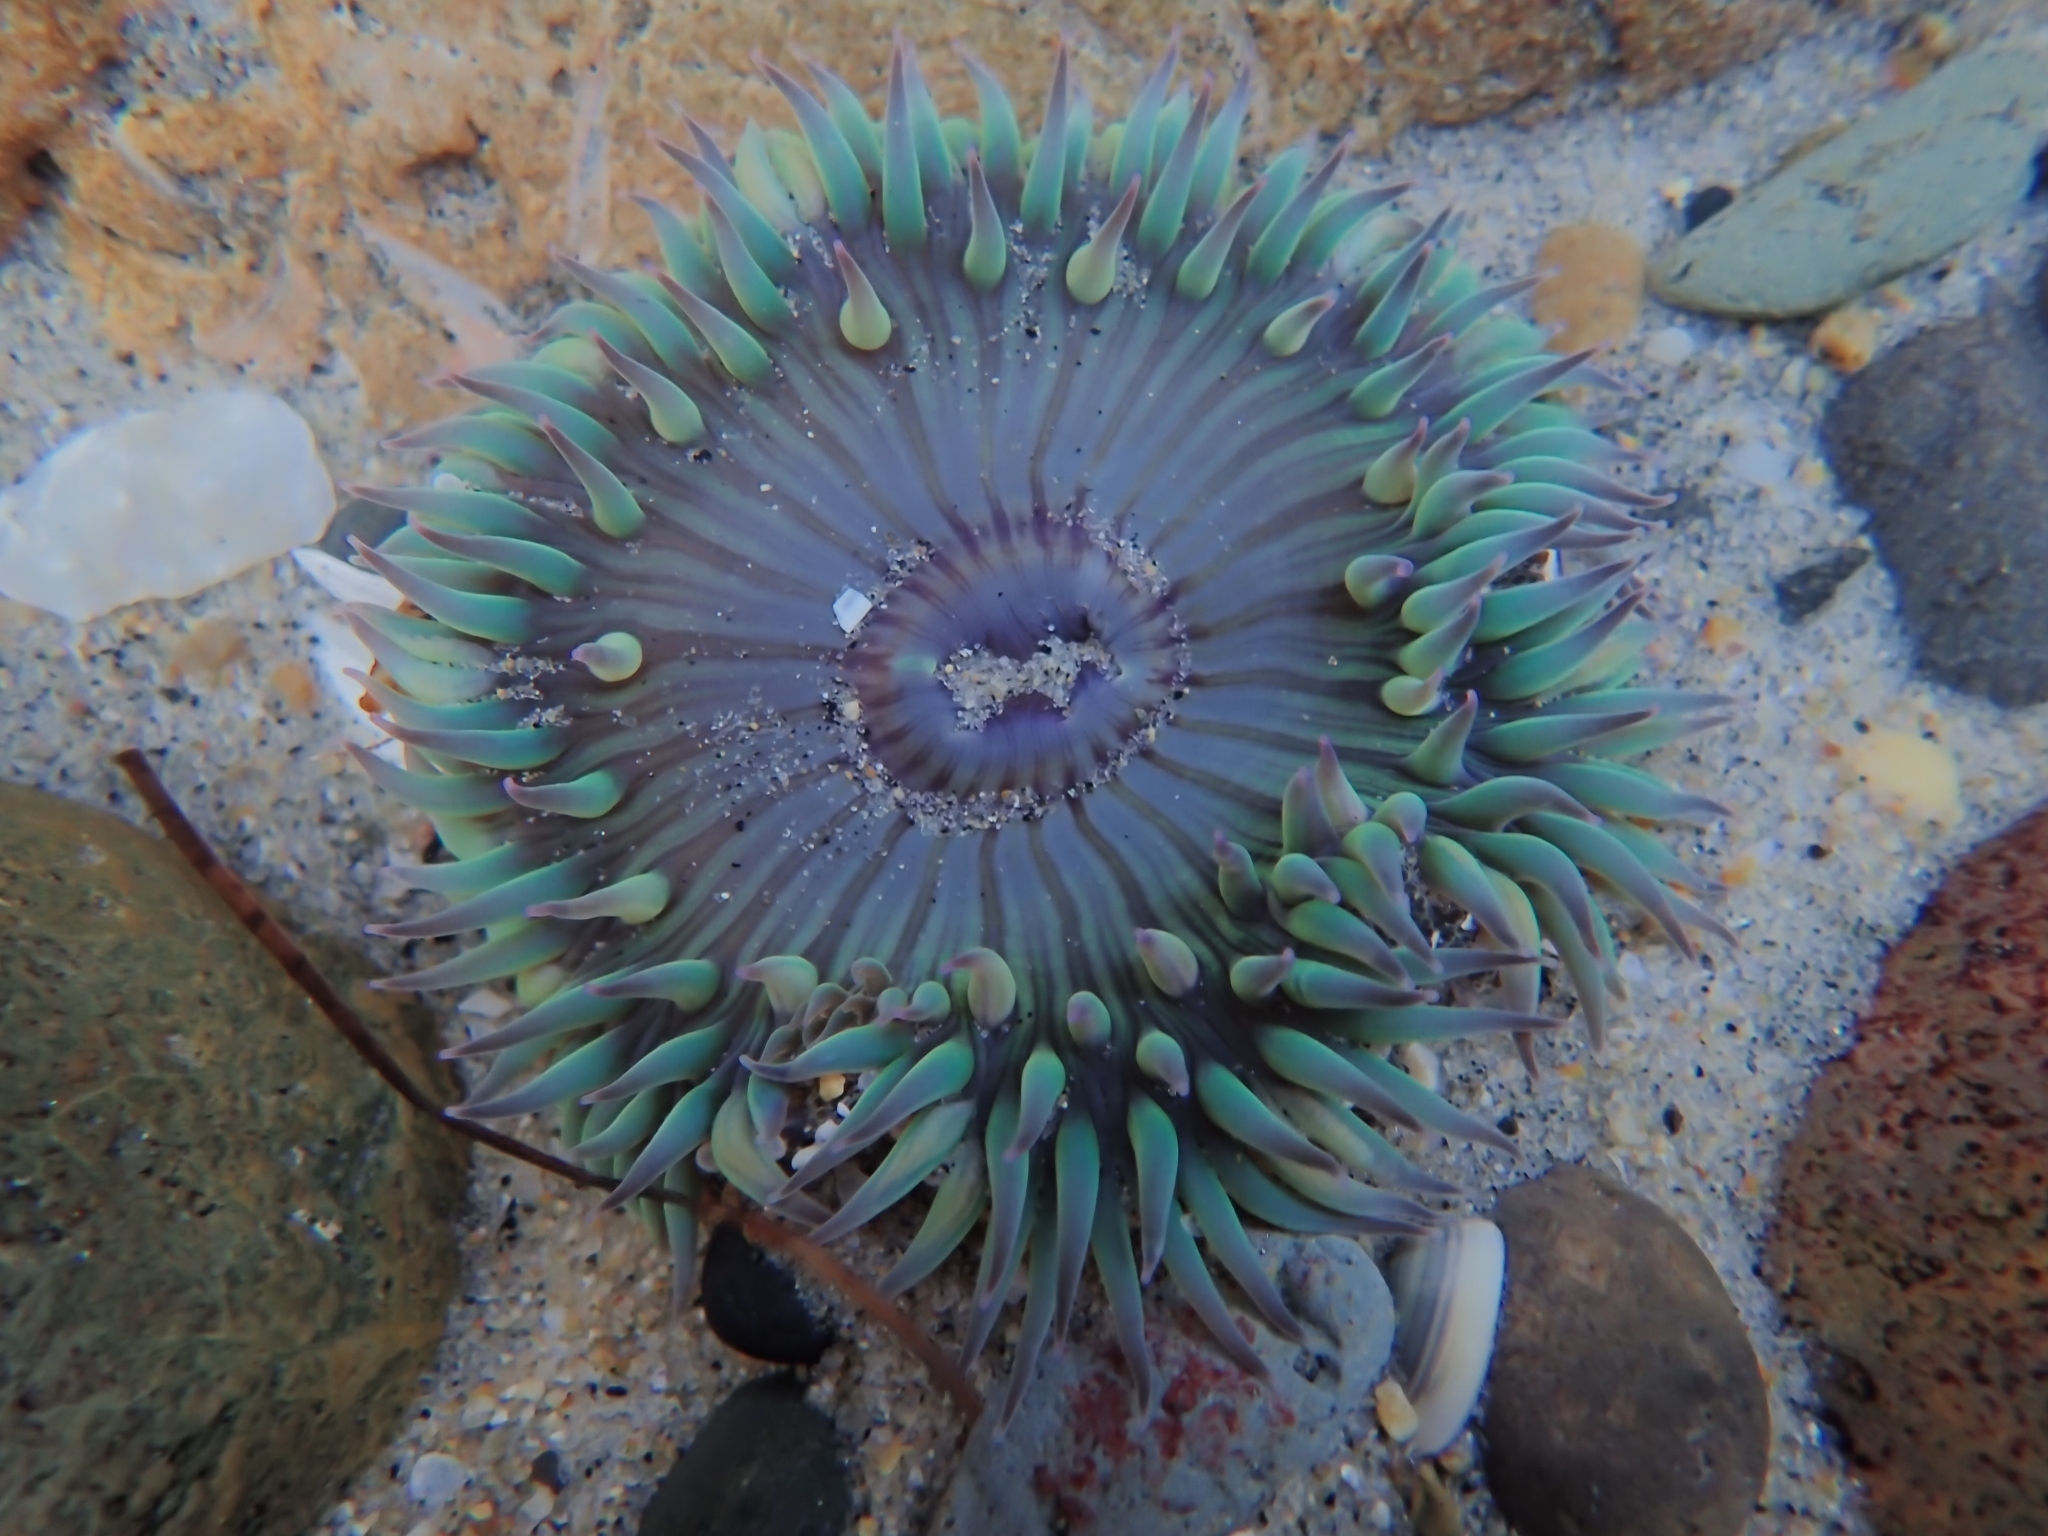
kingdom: Animalia
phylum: Cnidaria
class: Anthozoa
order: Actiniaria
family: Actiniidae
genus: Anthopleura
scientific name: Anthopleura sola
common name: Sun anemone
